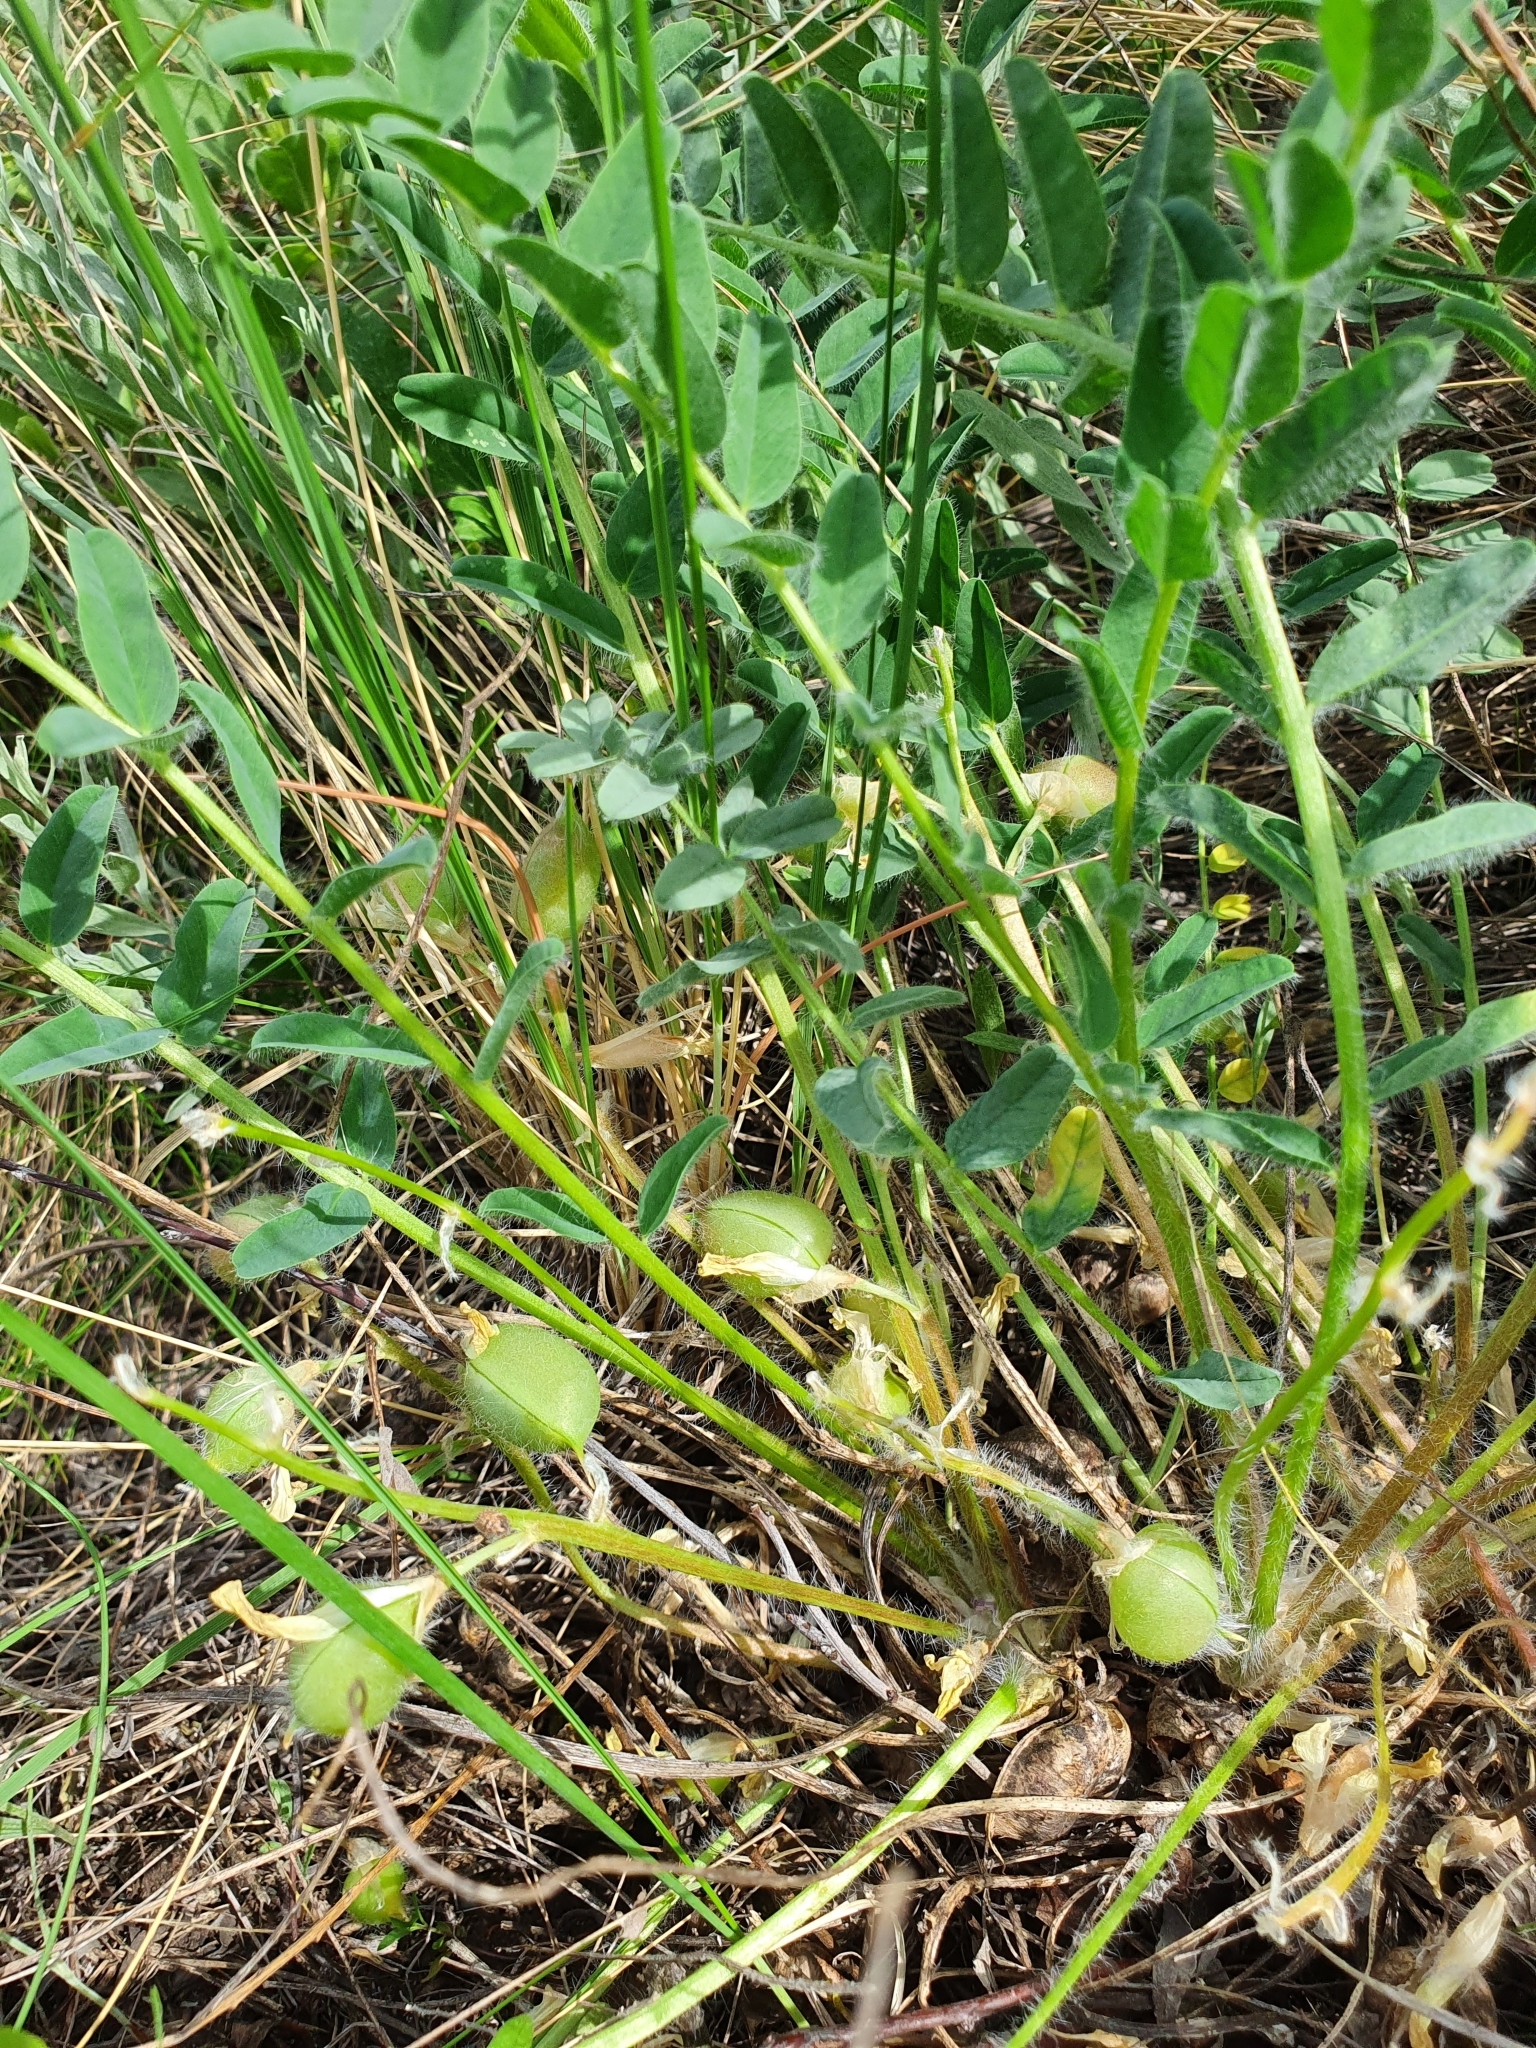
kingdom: Plantae
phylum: Tracheophyta
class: Magnoliopsida
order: Fabales
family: Fabaceae
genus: Astragalus
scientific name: Astragalus wolgensis
